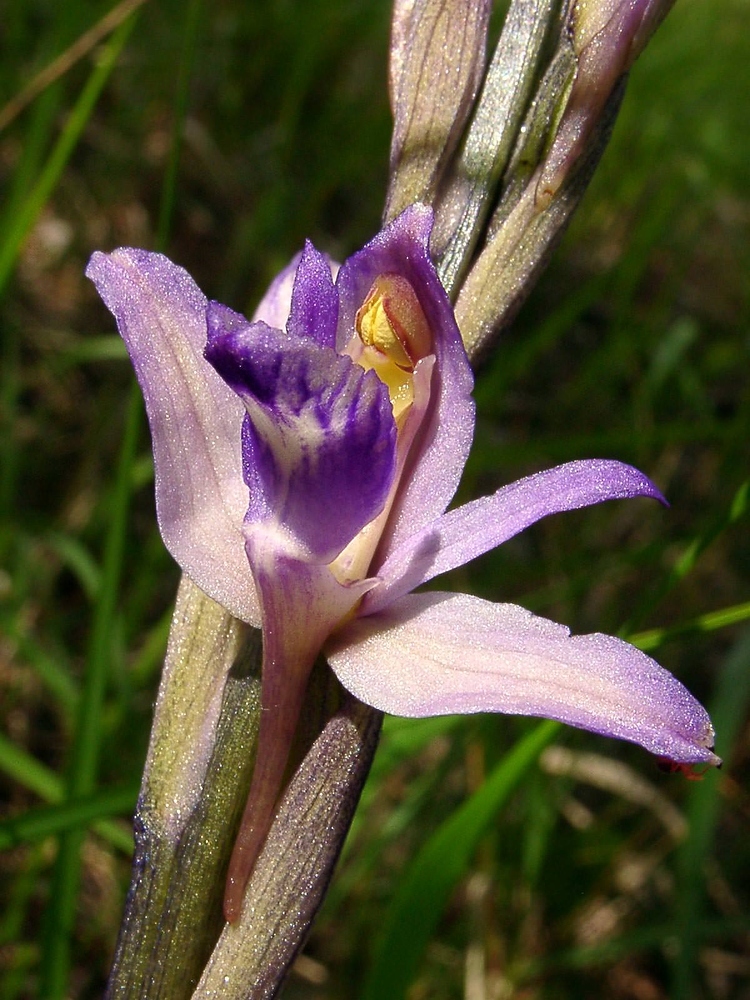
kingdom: Plantae
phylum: Tracheophyta
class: Liliopsida
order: Asparagales
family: Orchidaceae
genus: Limodorum
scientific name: Limodorum abortivum
